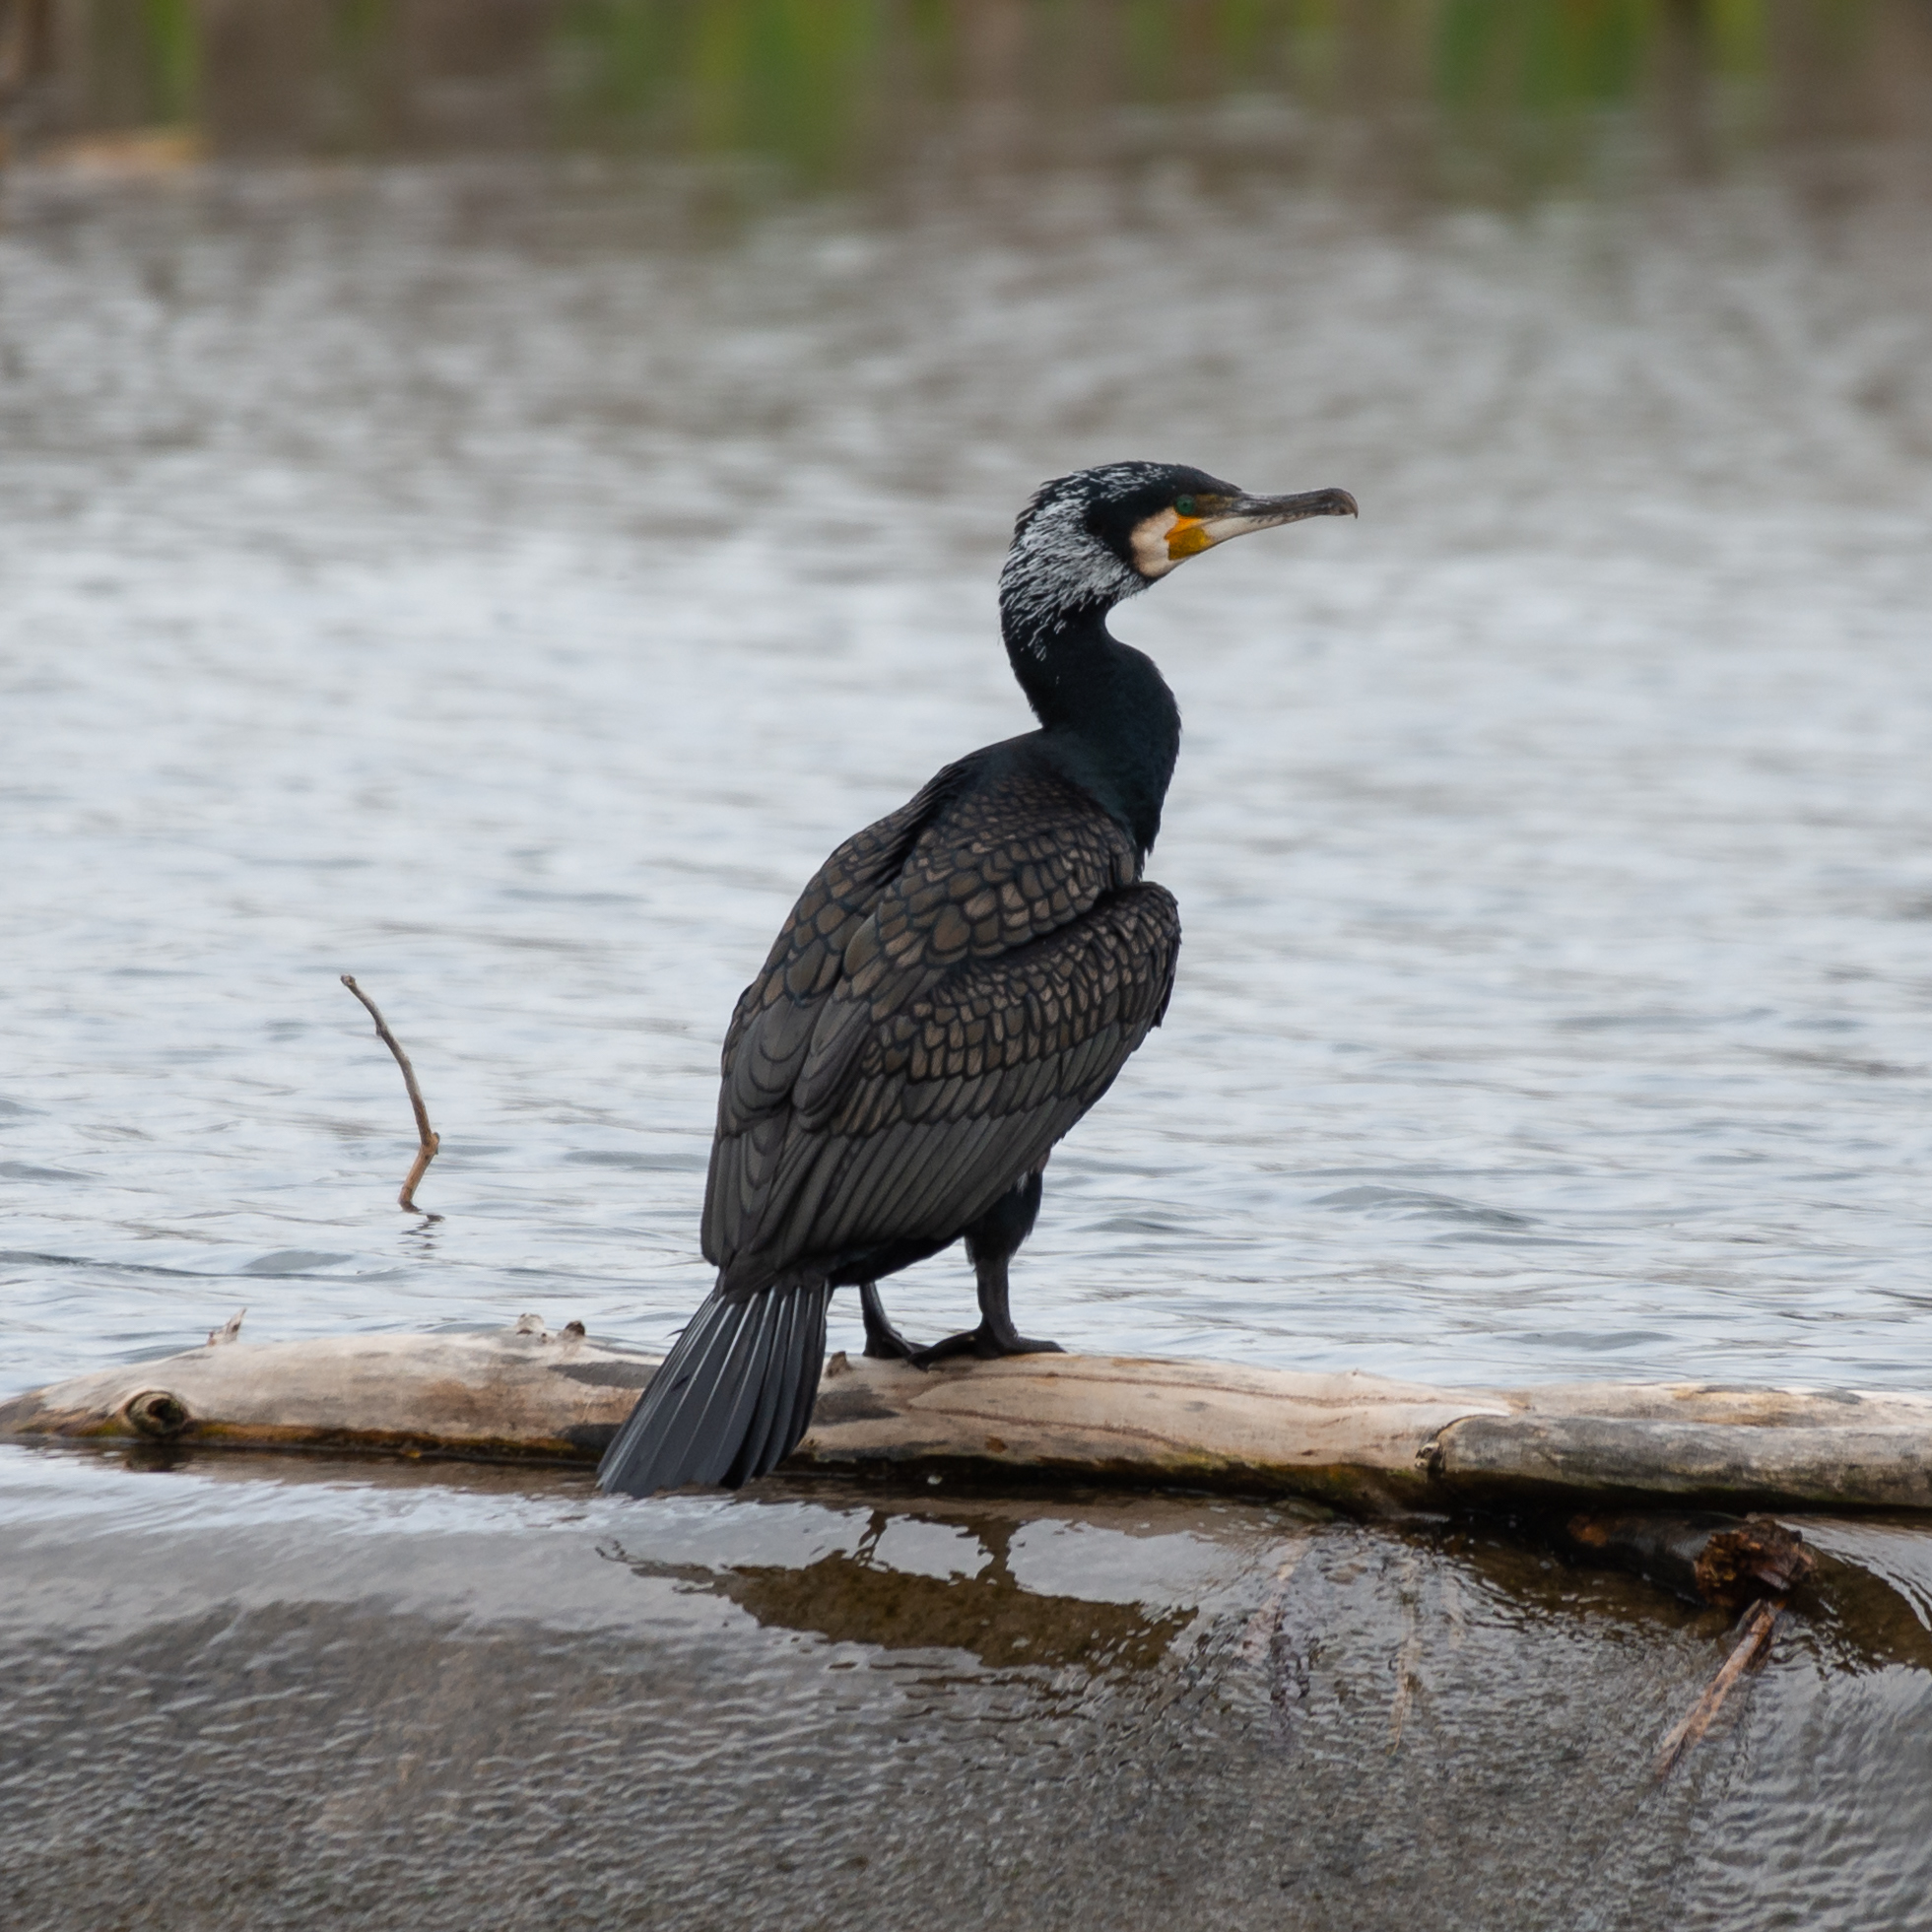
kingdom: Animalia
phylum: Chordata
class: Aves
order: Suliformes
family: Phalacrocoracidae
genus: Phalacrocorax
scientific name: Phalacrocorax carbo
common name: Great cormorant
